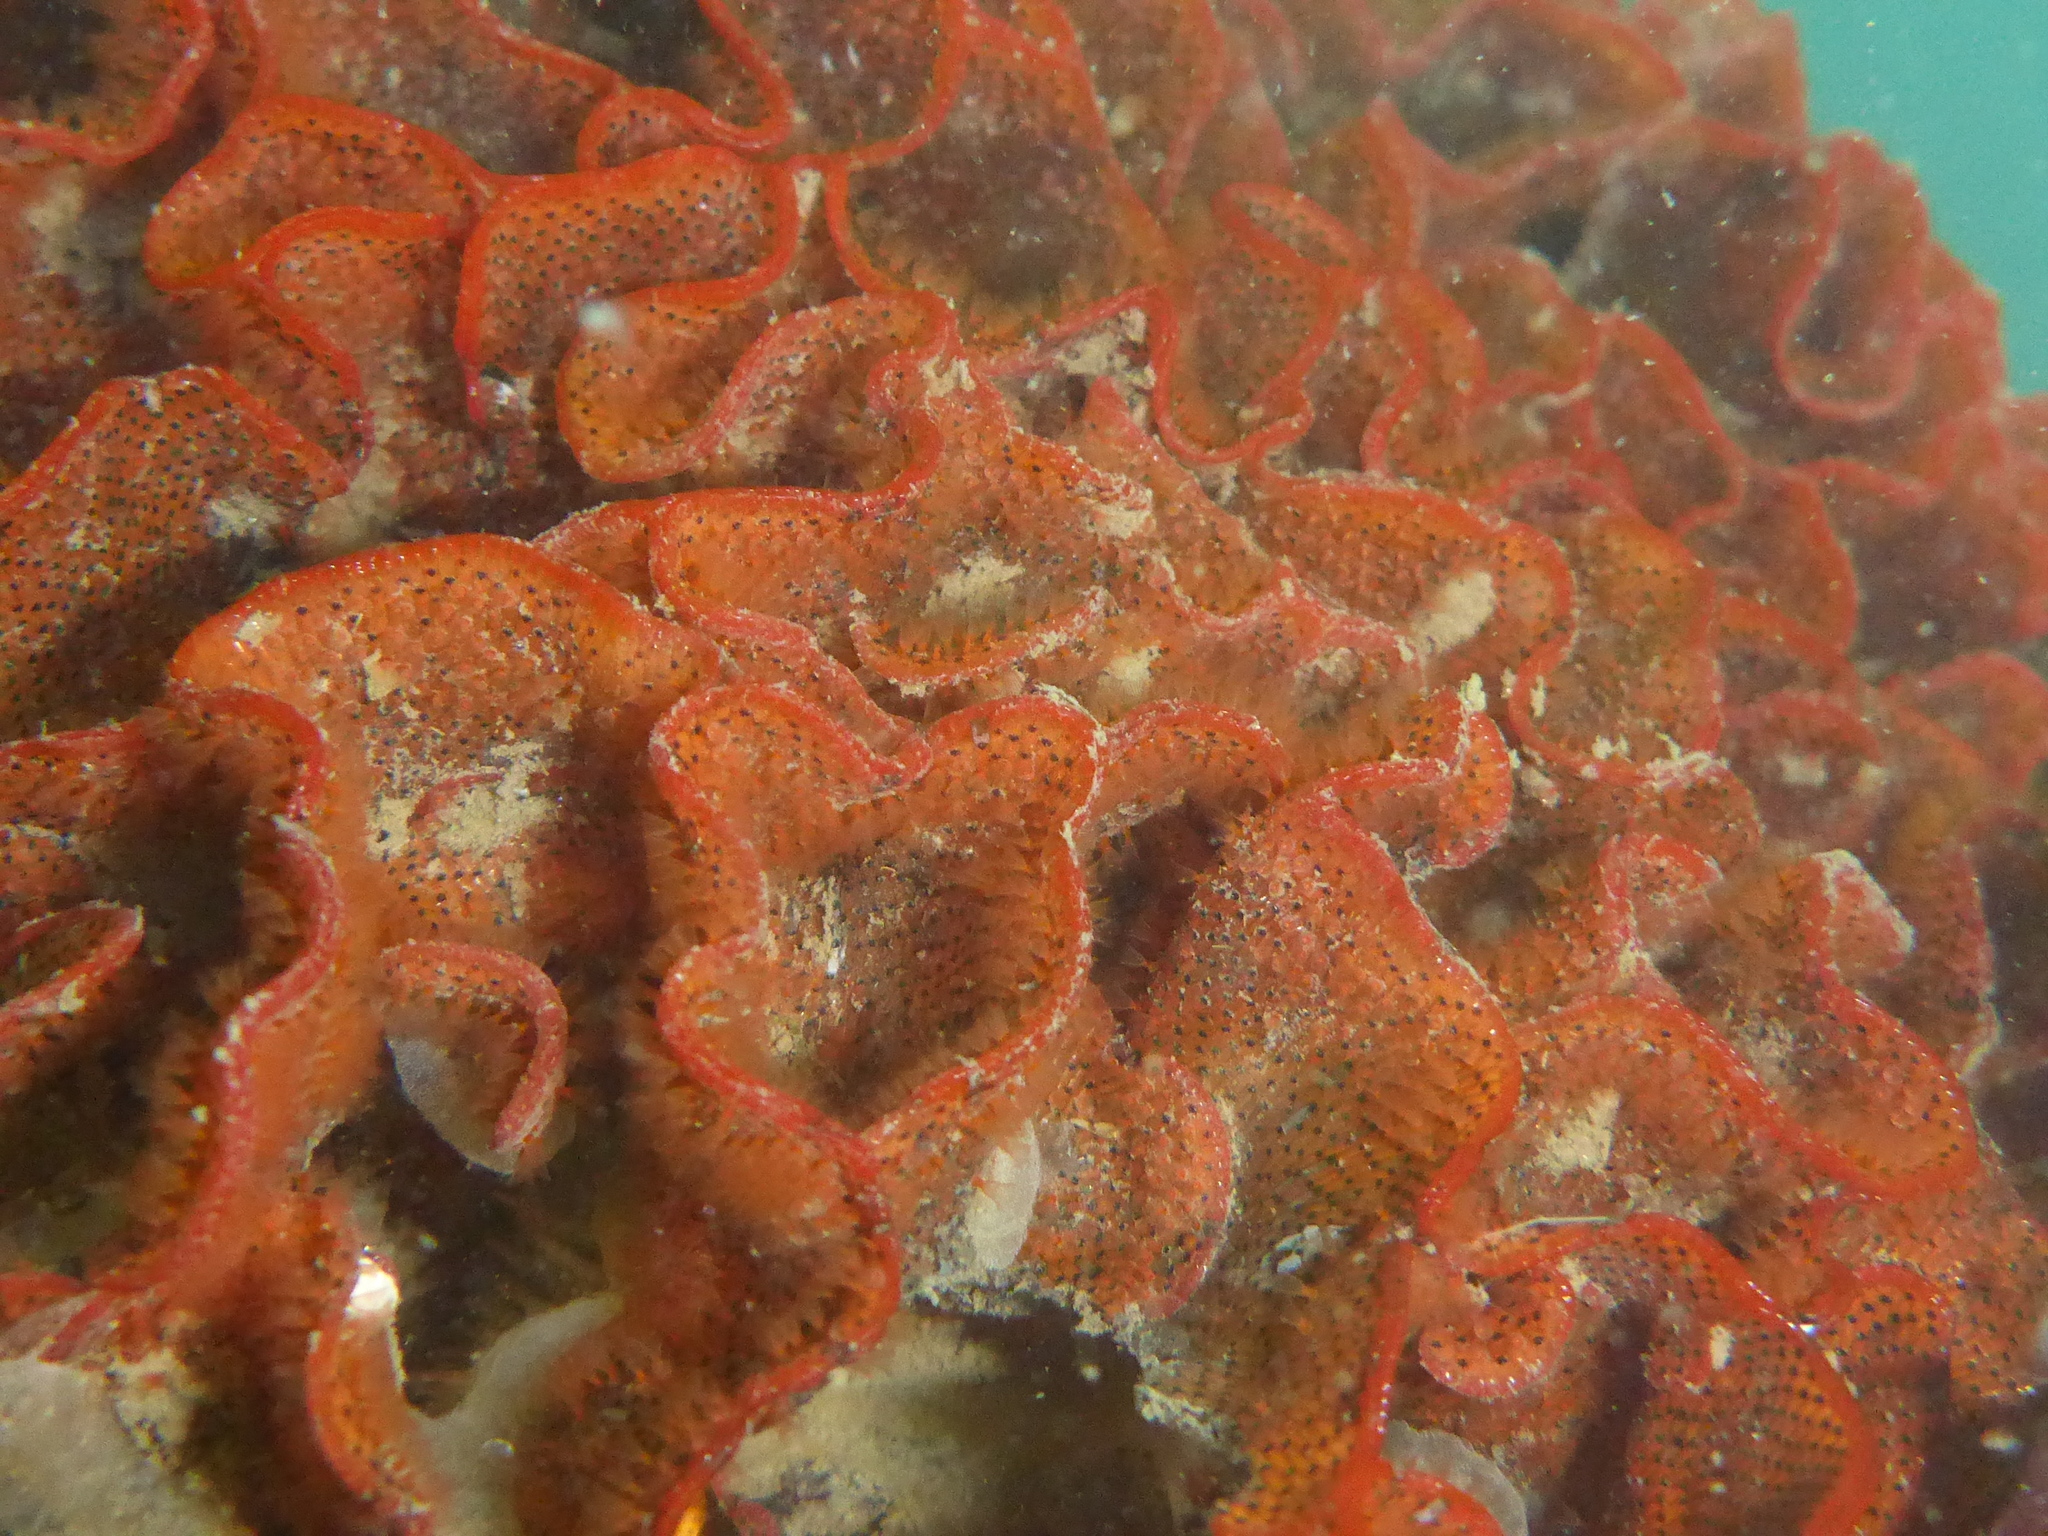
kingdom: Animalia
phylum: Bryozoa
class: Gymnolaemata
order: Cheilostomatida
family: Watersiporidae
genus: Watersipora
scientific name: Watersipora subtorquata
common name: Bryozoan
